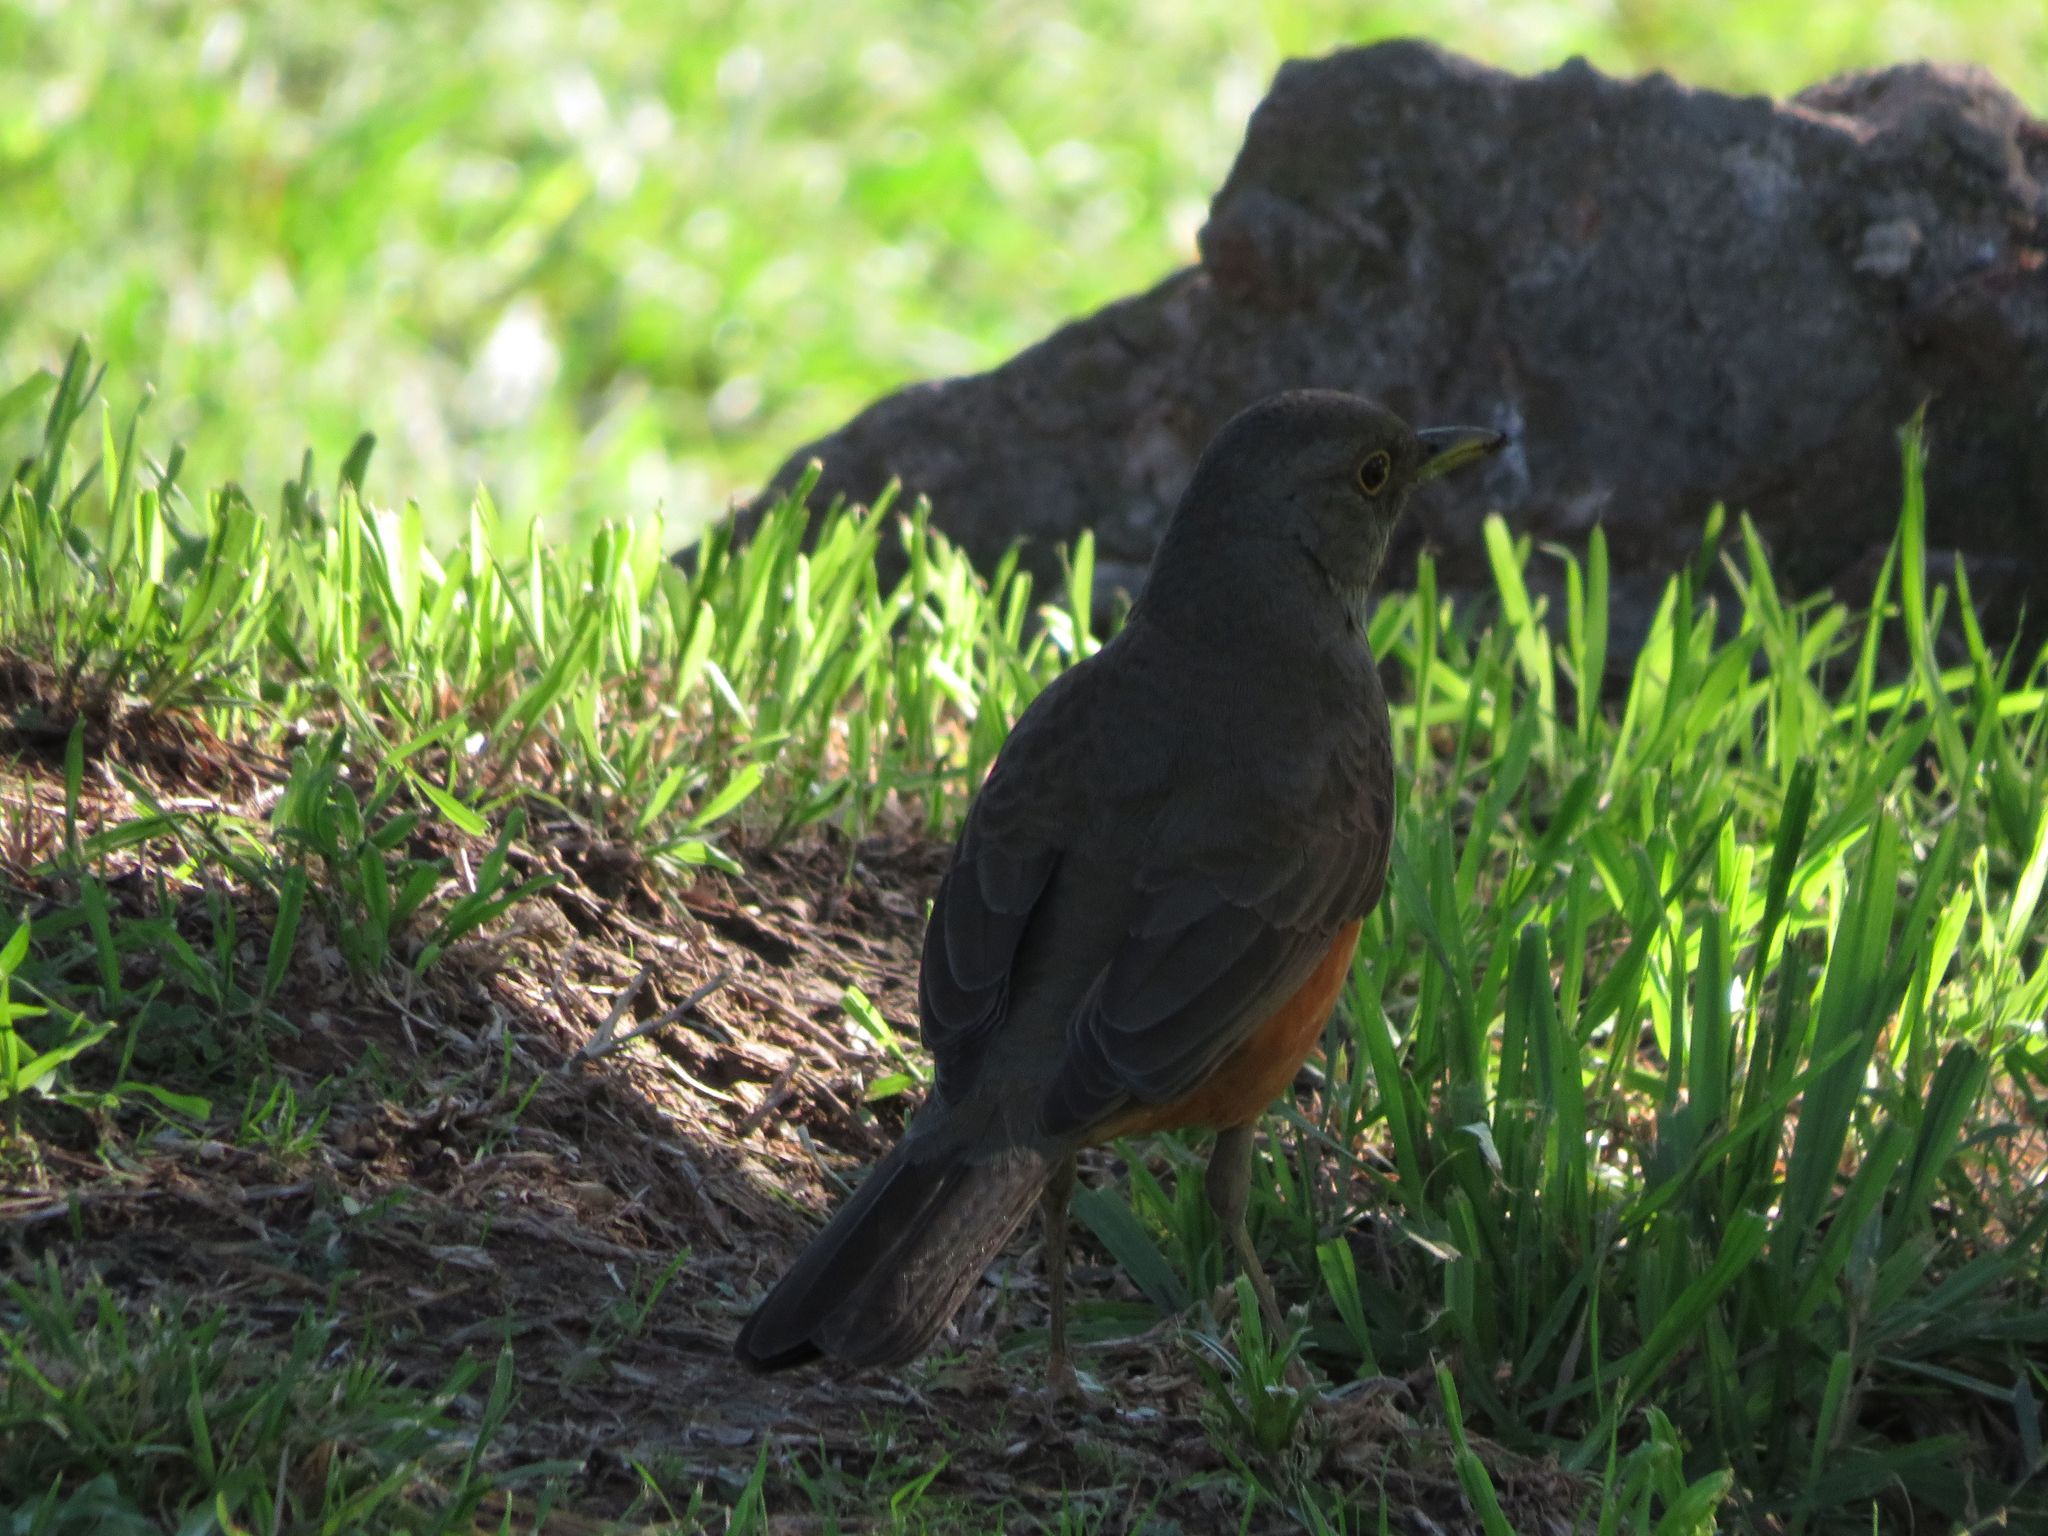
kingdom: Animalia
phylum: Chordata
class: Aves
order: Passeriformes
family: Turdidae
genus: Turdus
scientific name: Turdus rufiventris
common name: Rufous-bellied thrush
